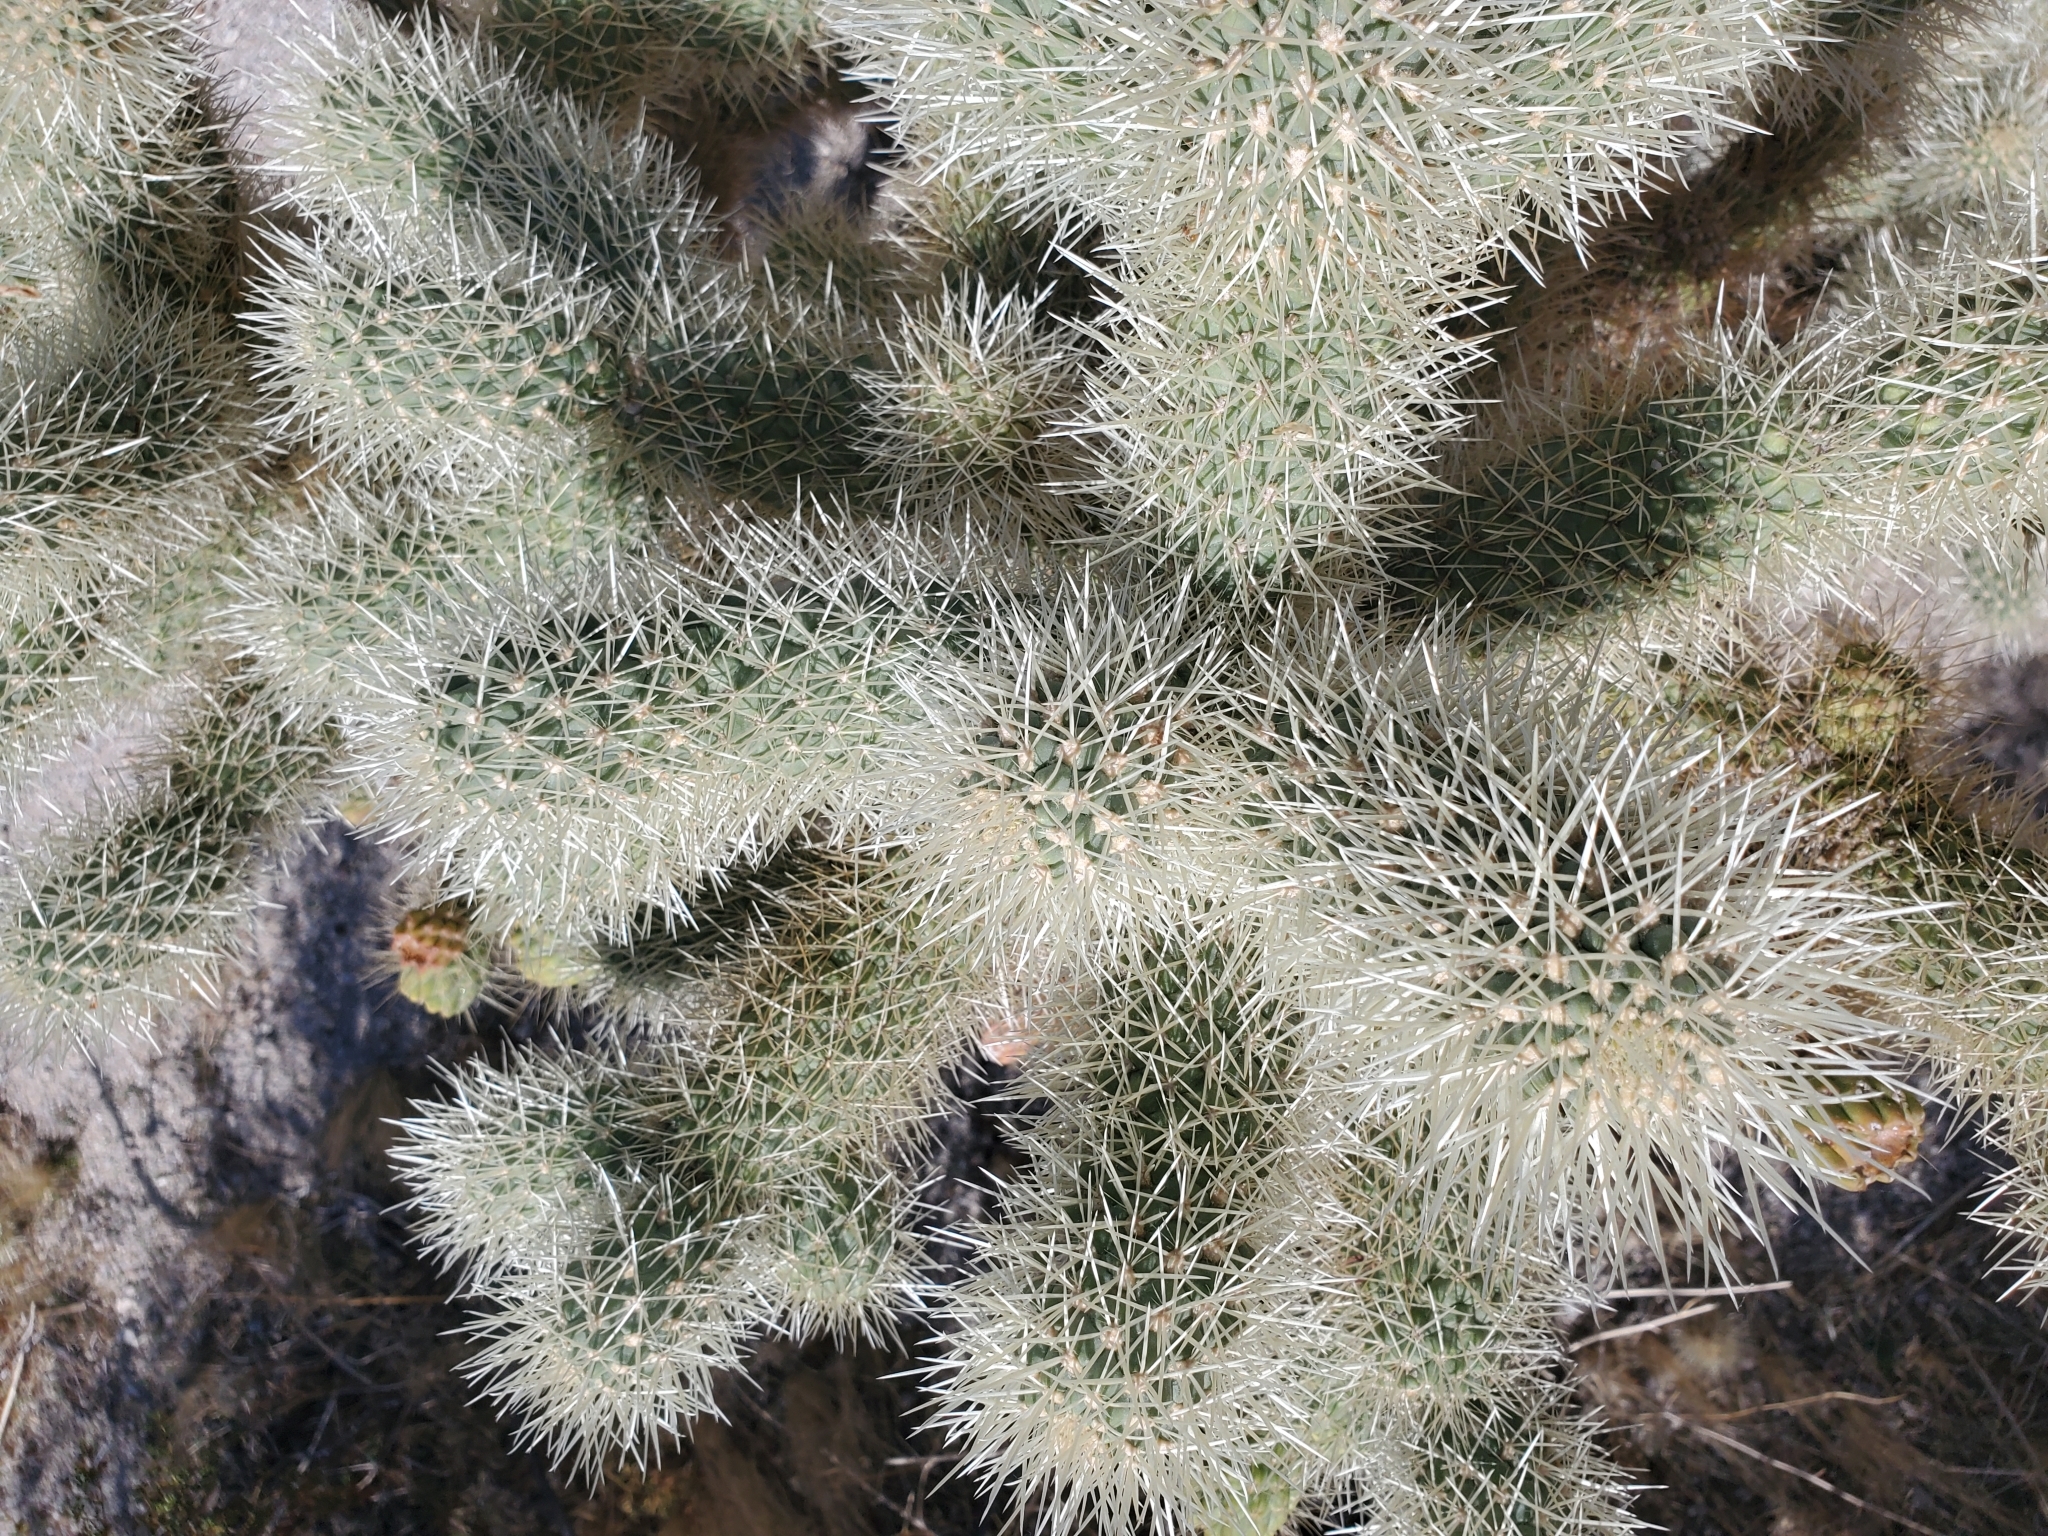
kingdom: Plantae
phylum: Tracheophyta
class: Magnoliopsida
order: Caryophyllales
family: Cactaceae
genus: Cylindropuntia
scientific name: Cylindropuntia fosbergii
